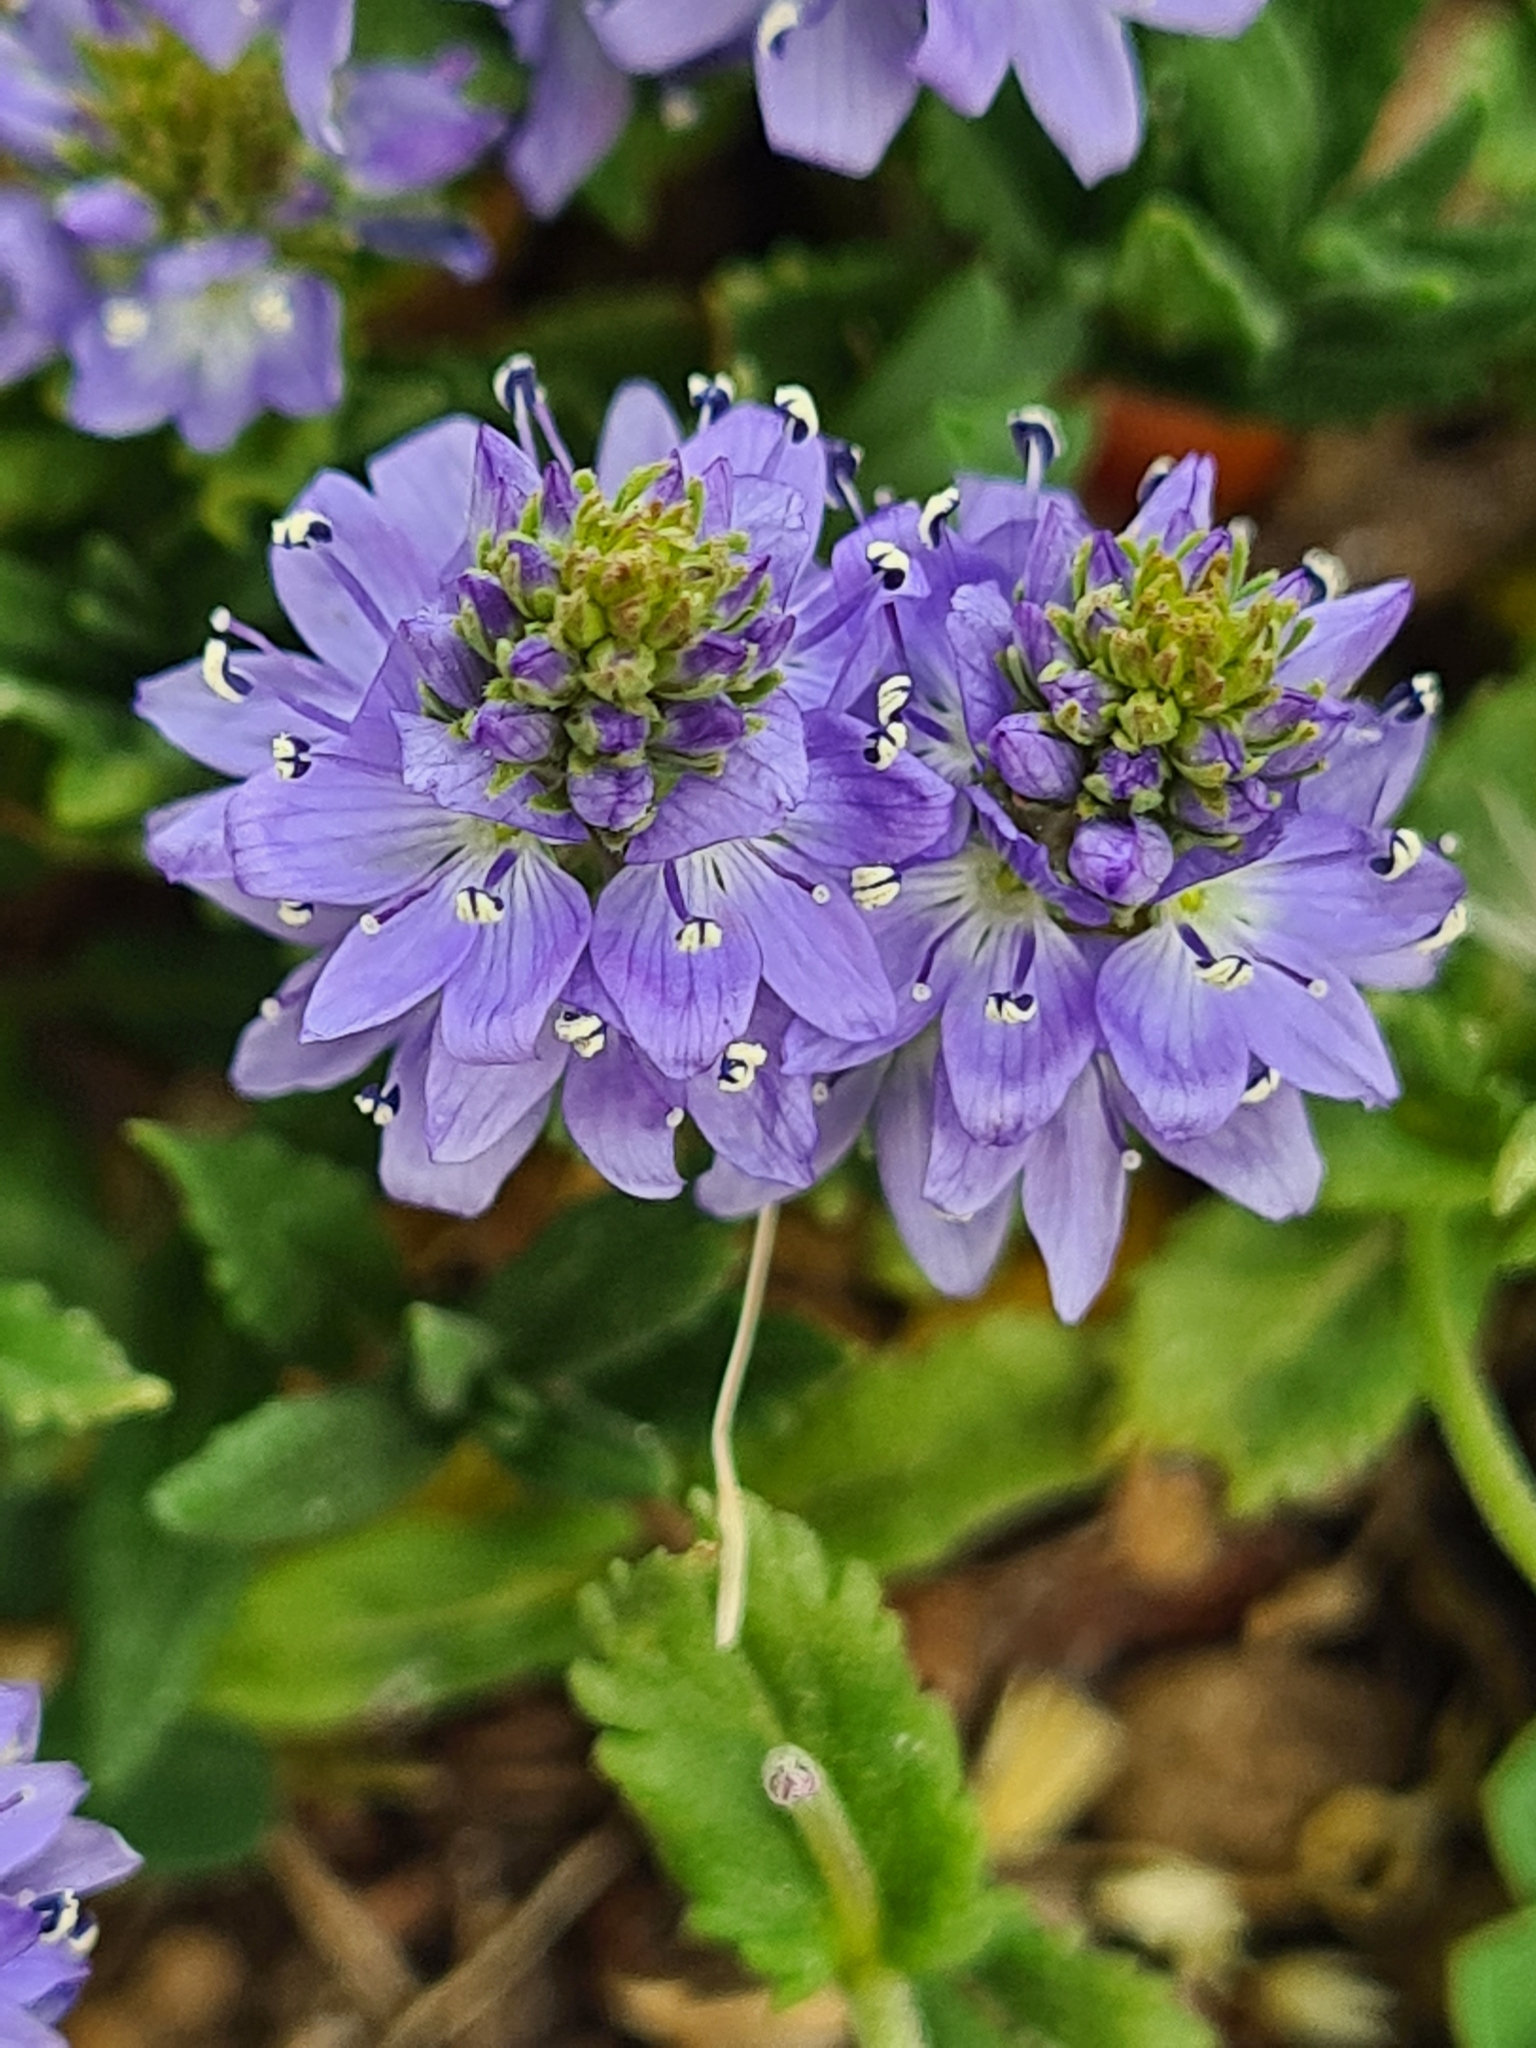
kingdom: Plantae
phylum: Tracheophyta
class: Magnoliopsida
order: Lamiales
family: Plantaginaceae
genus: Veronica
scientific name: Veronica prostrata
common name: Prostrate speedwell
